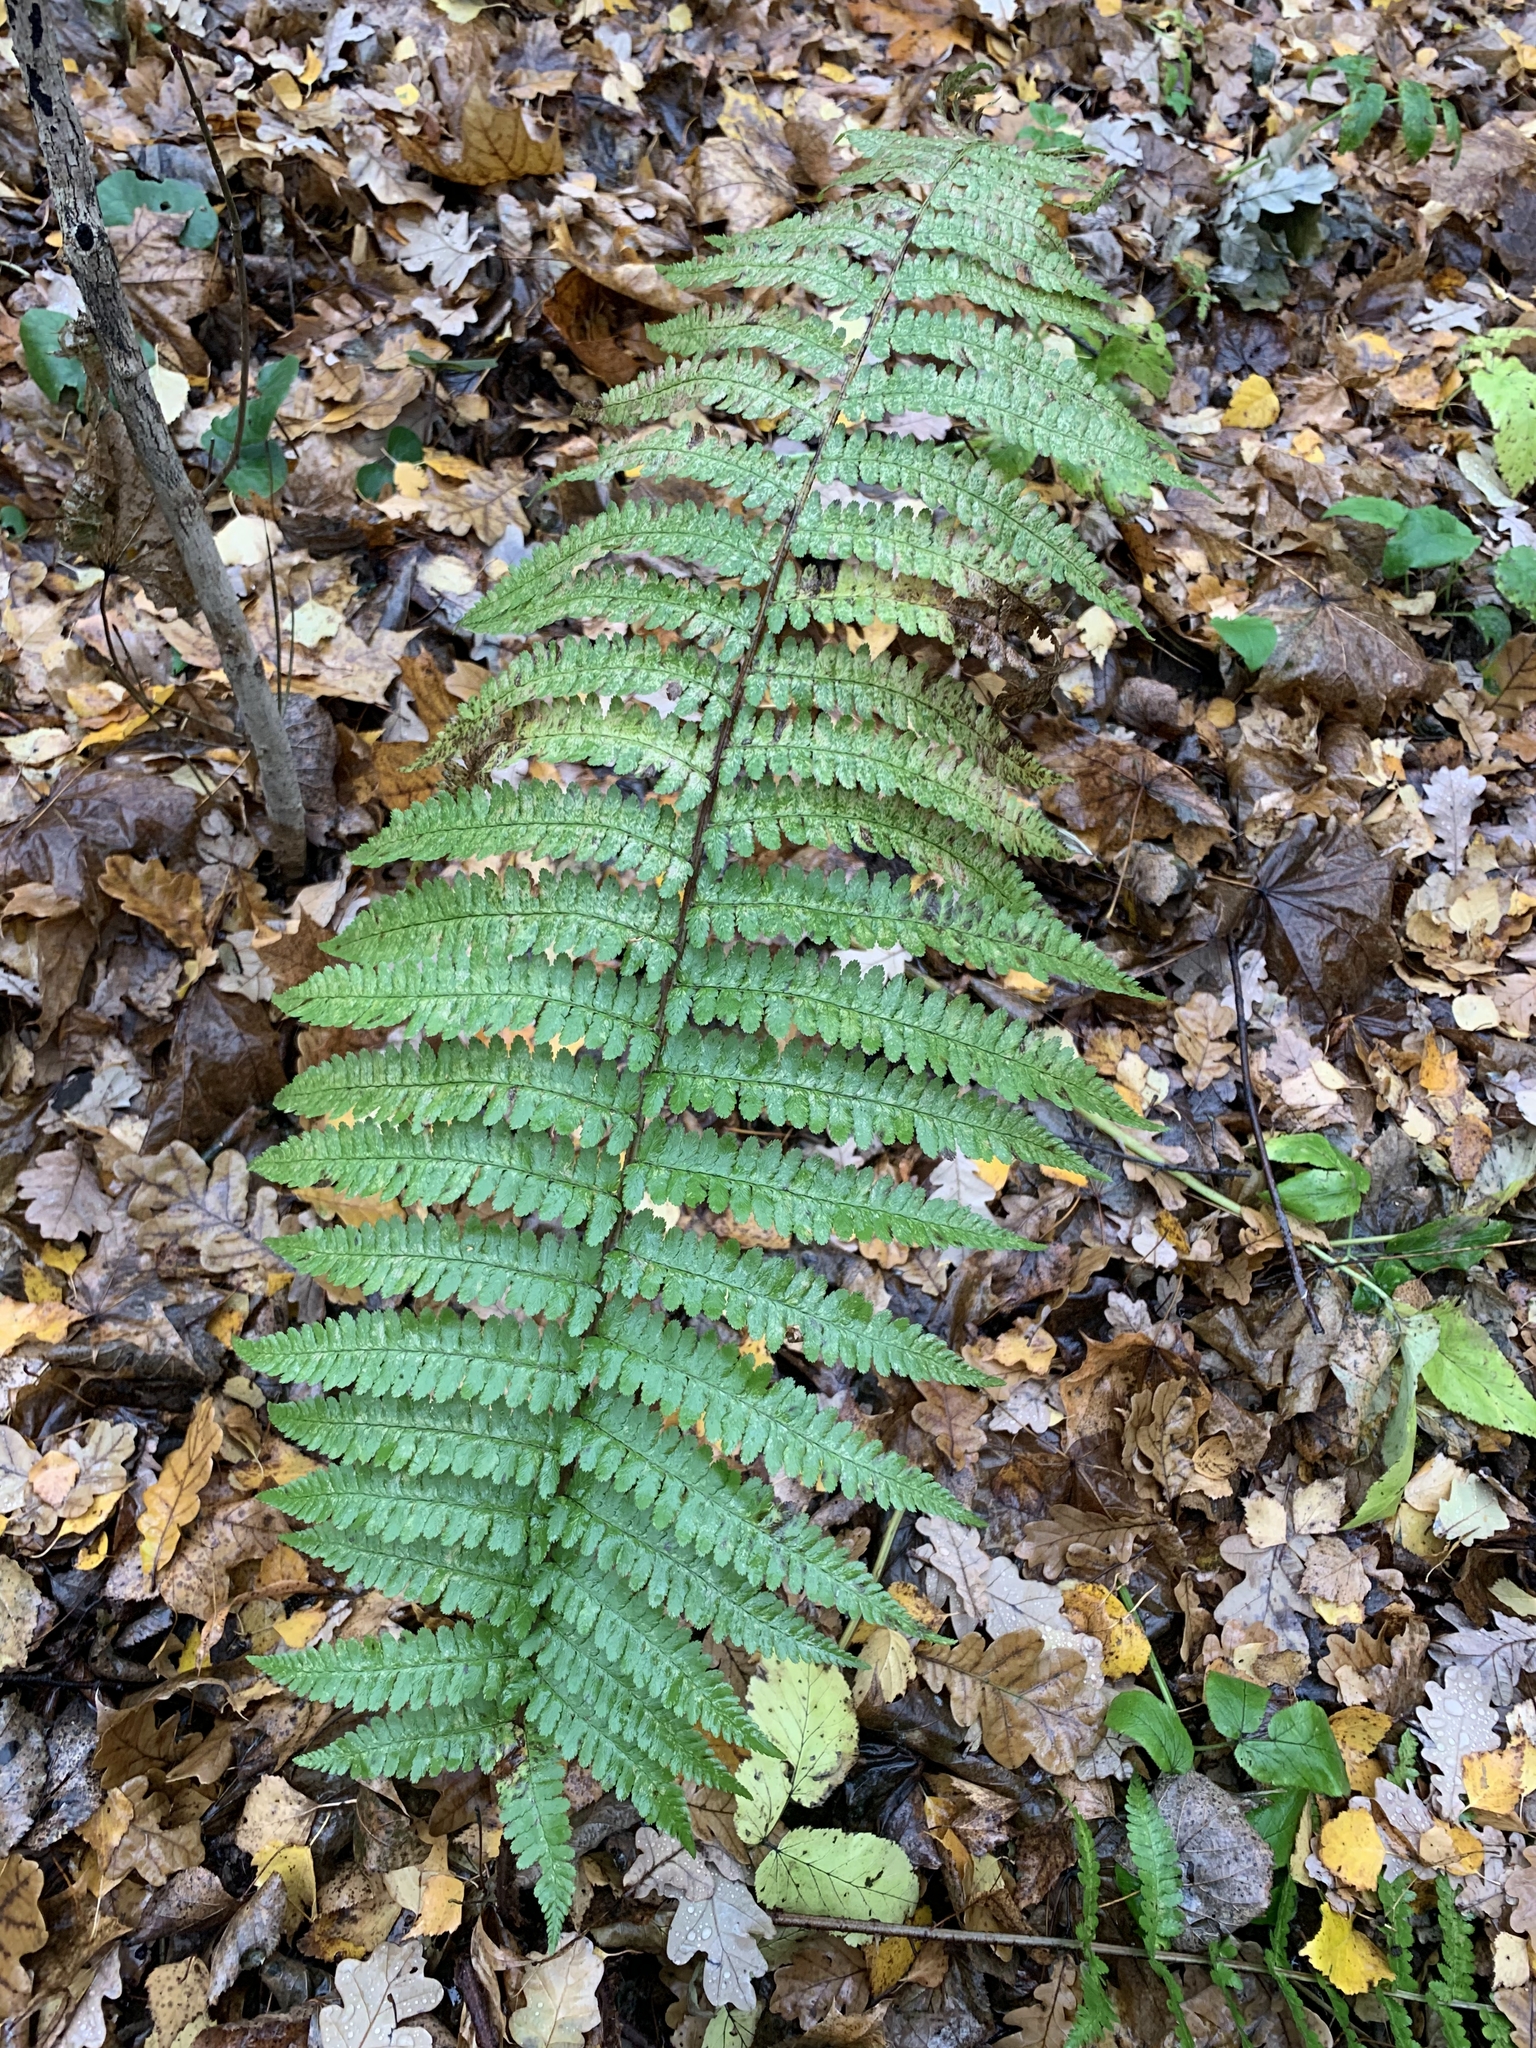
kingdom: Plantae
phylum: Tracheophyta
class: Polypodiopsida
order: Polypodiales
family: Dryopteridaceae
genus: Dryopteris
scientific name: Dryopteris filix-mas
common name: Male fern
